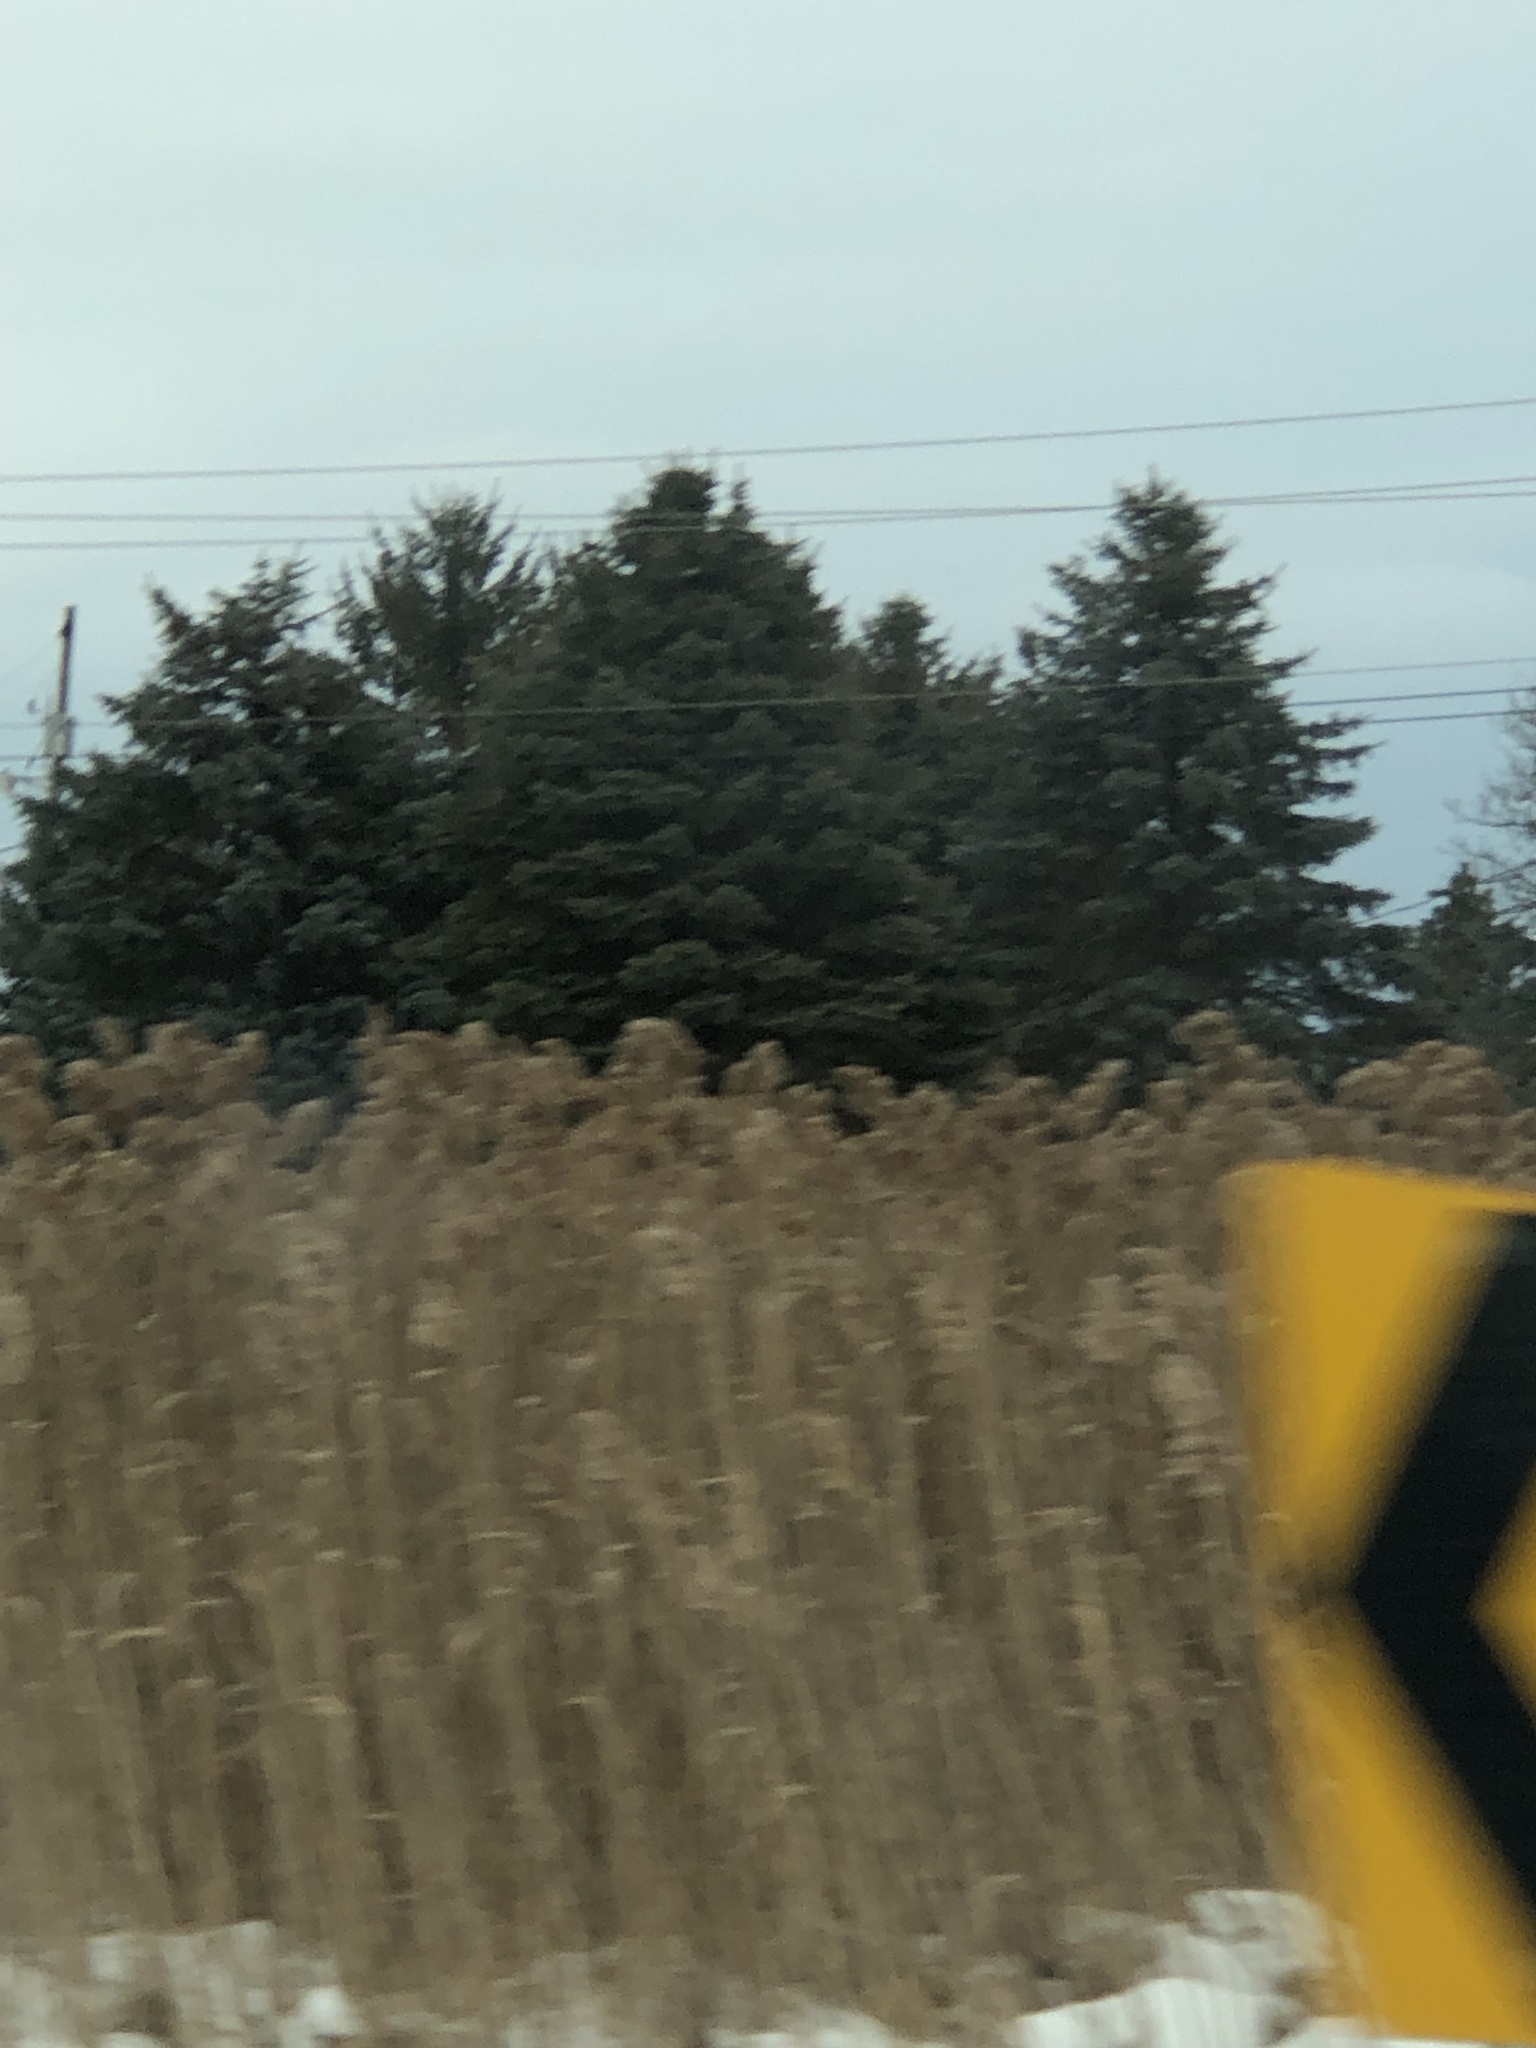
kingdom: Plantae
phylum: Tracheophyta
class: Liliopsida
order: Poales
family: Poaceae
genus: Phragmites
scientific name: Phragmites australis
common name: Common reed
